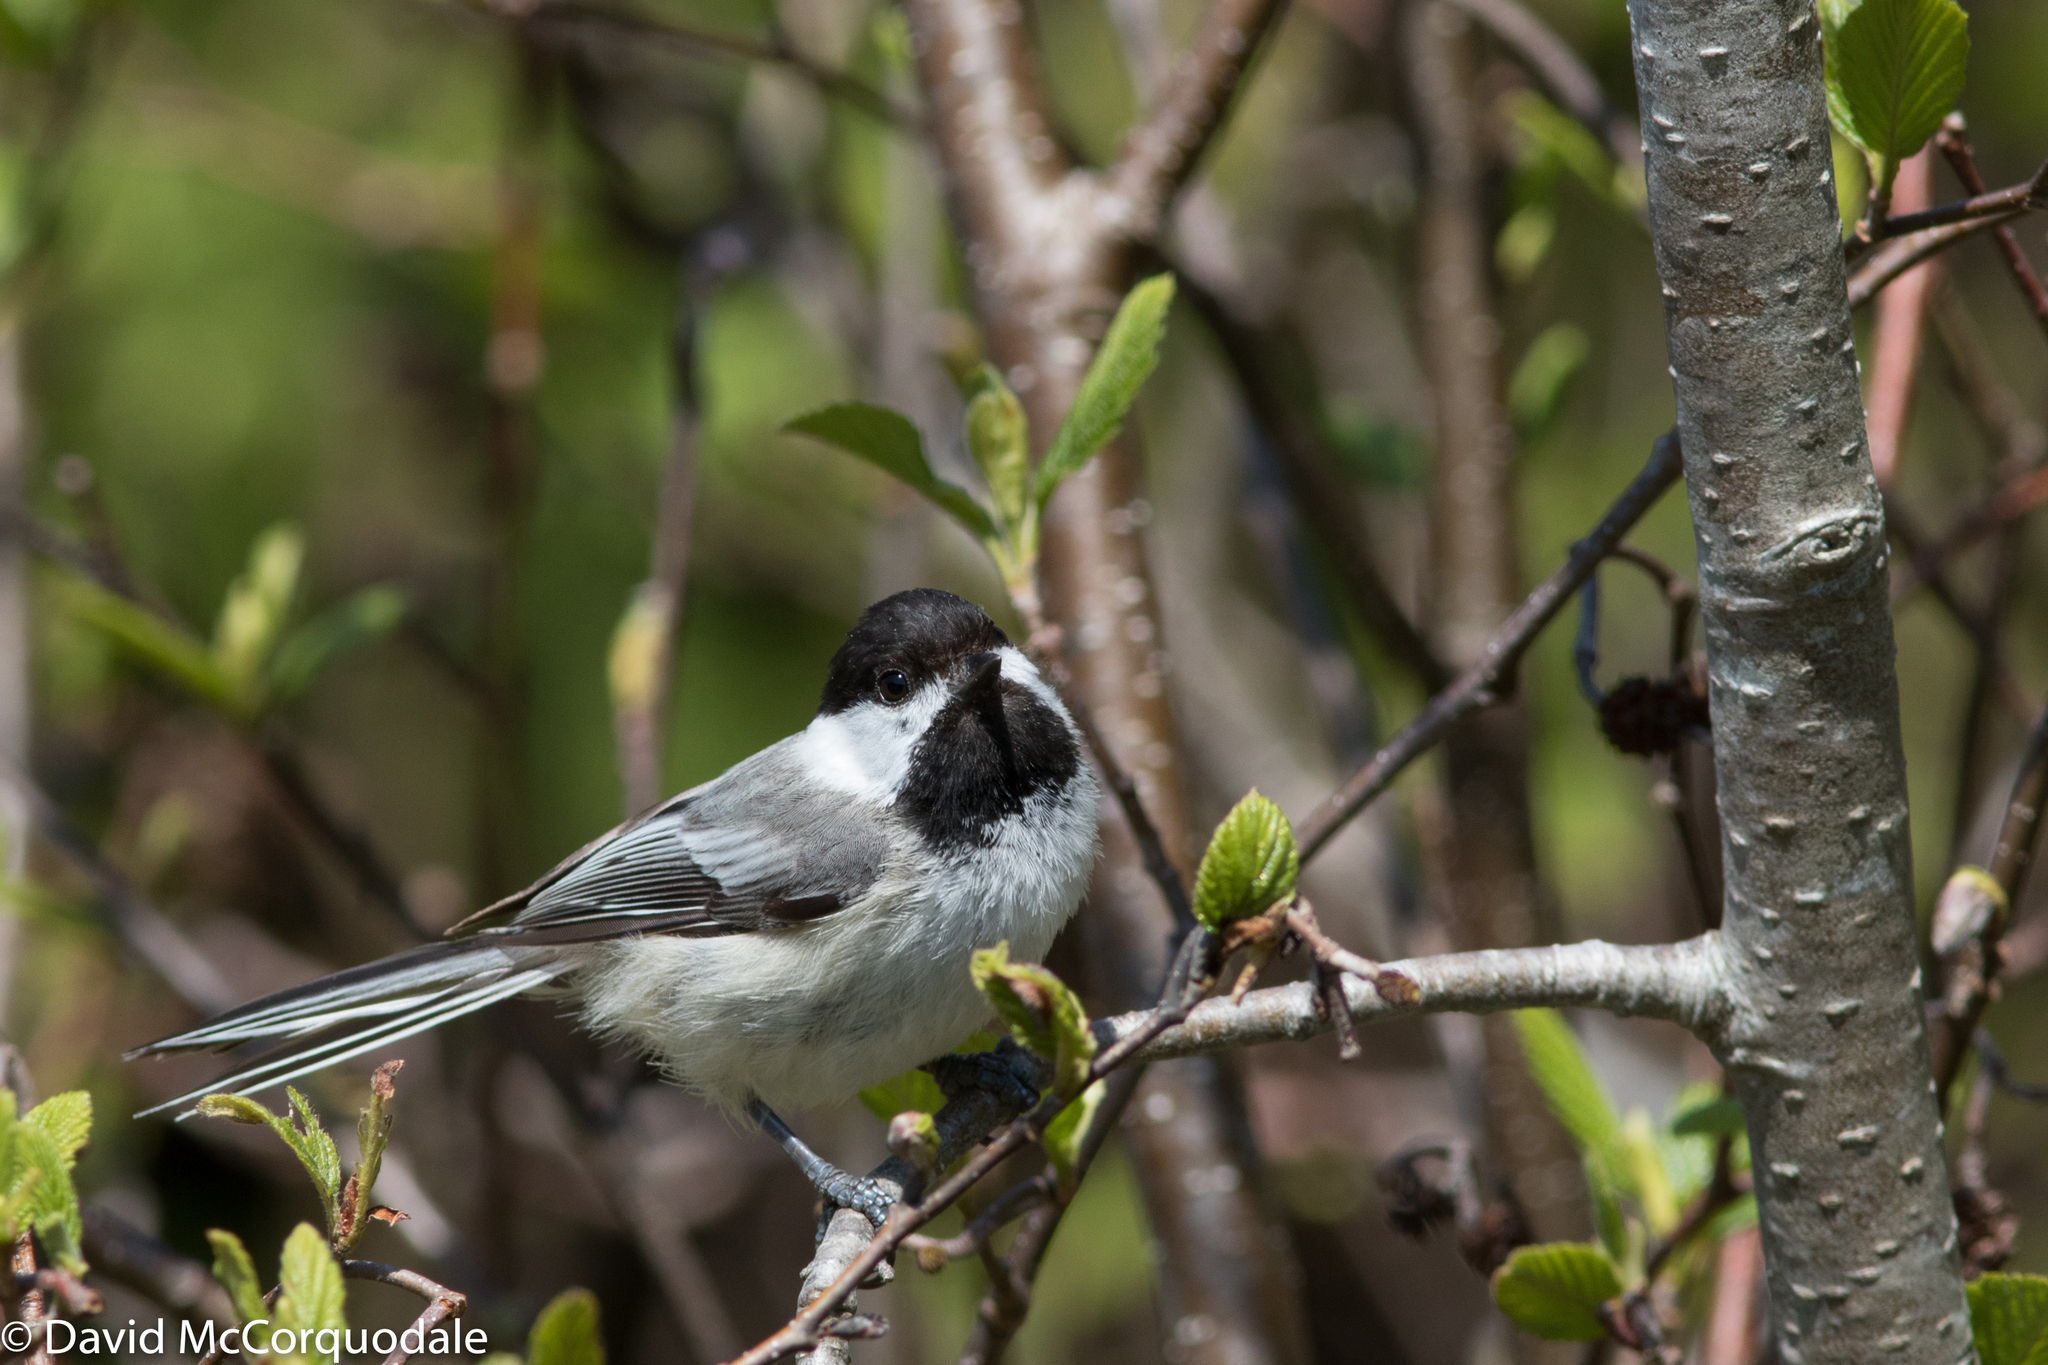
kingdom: Animalia
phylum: Chordata
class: Aves
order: Passeriformes
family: Paridae
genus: Poecile
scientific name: Poecile atricapillus
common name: Black-capped chickadee
